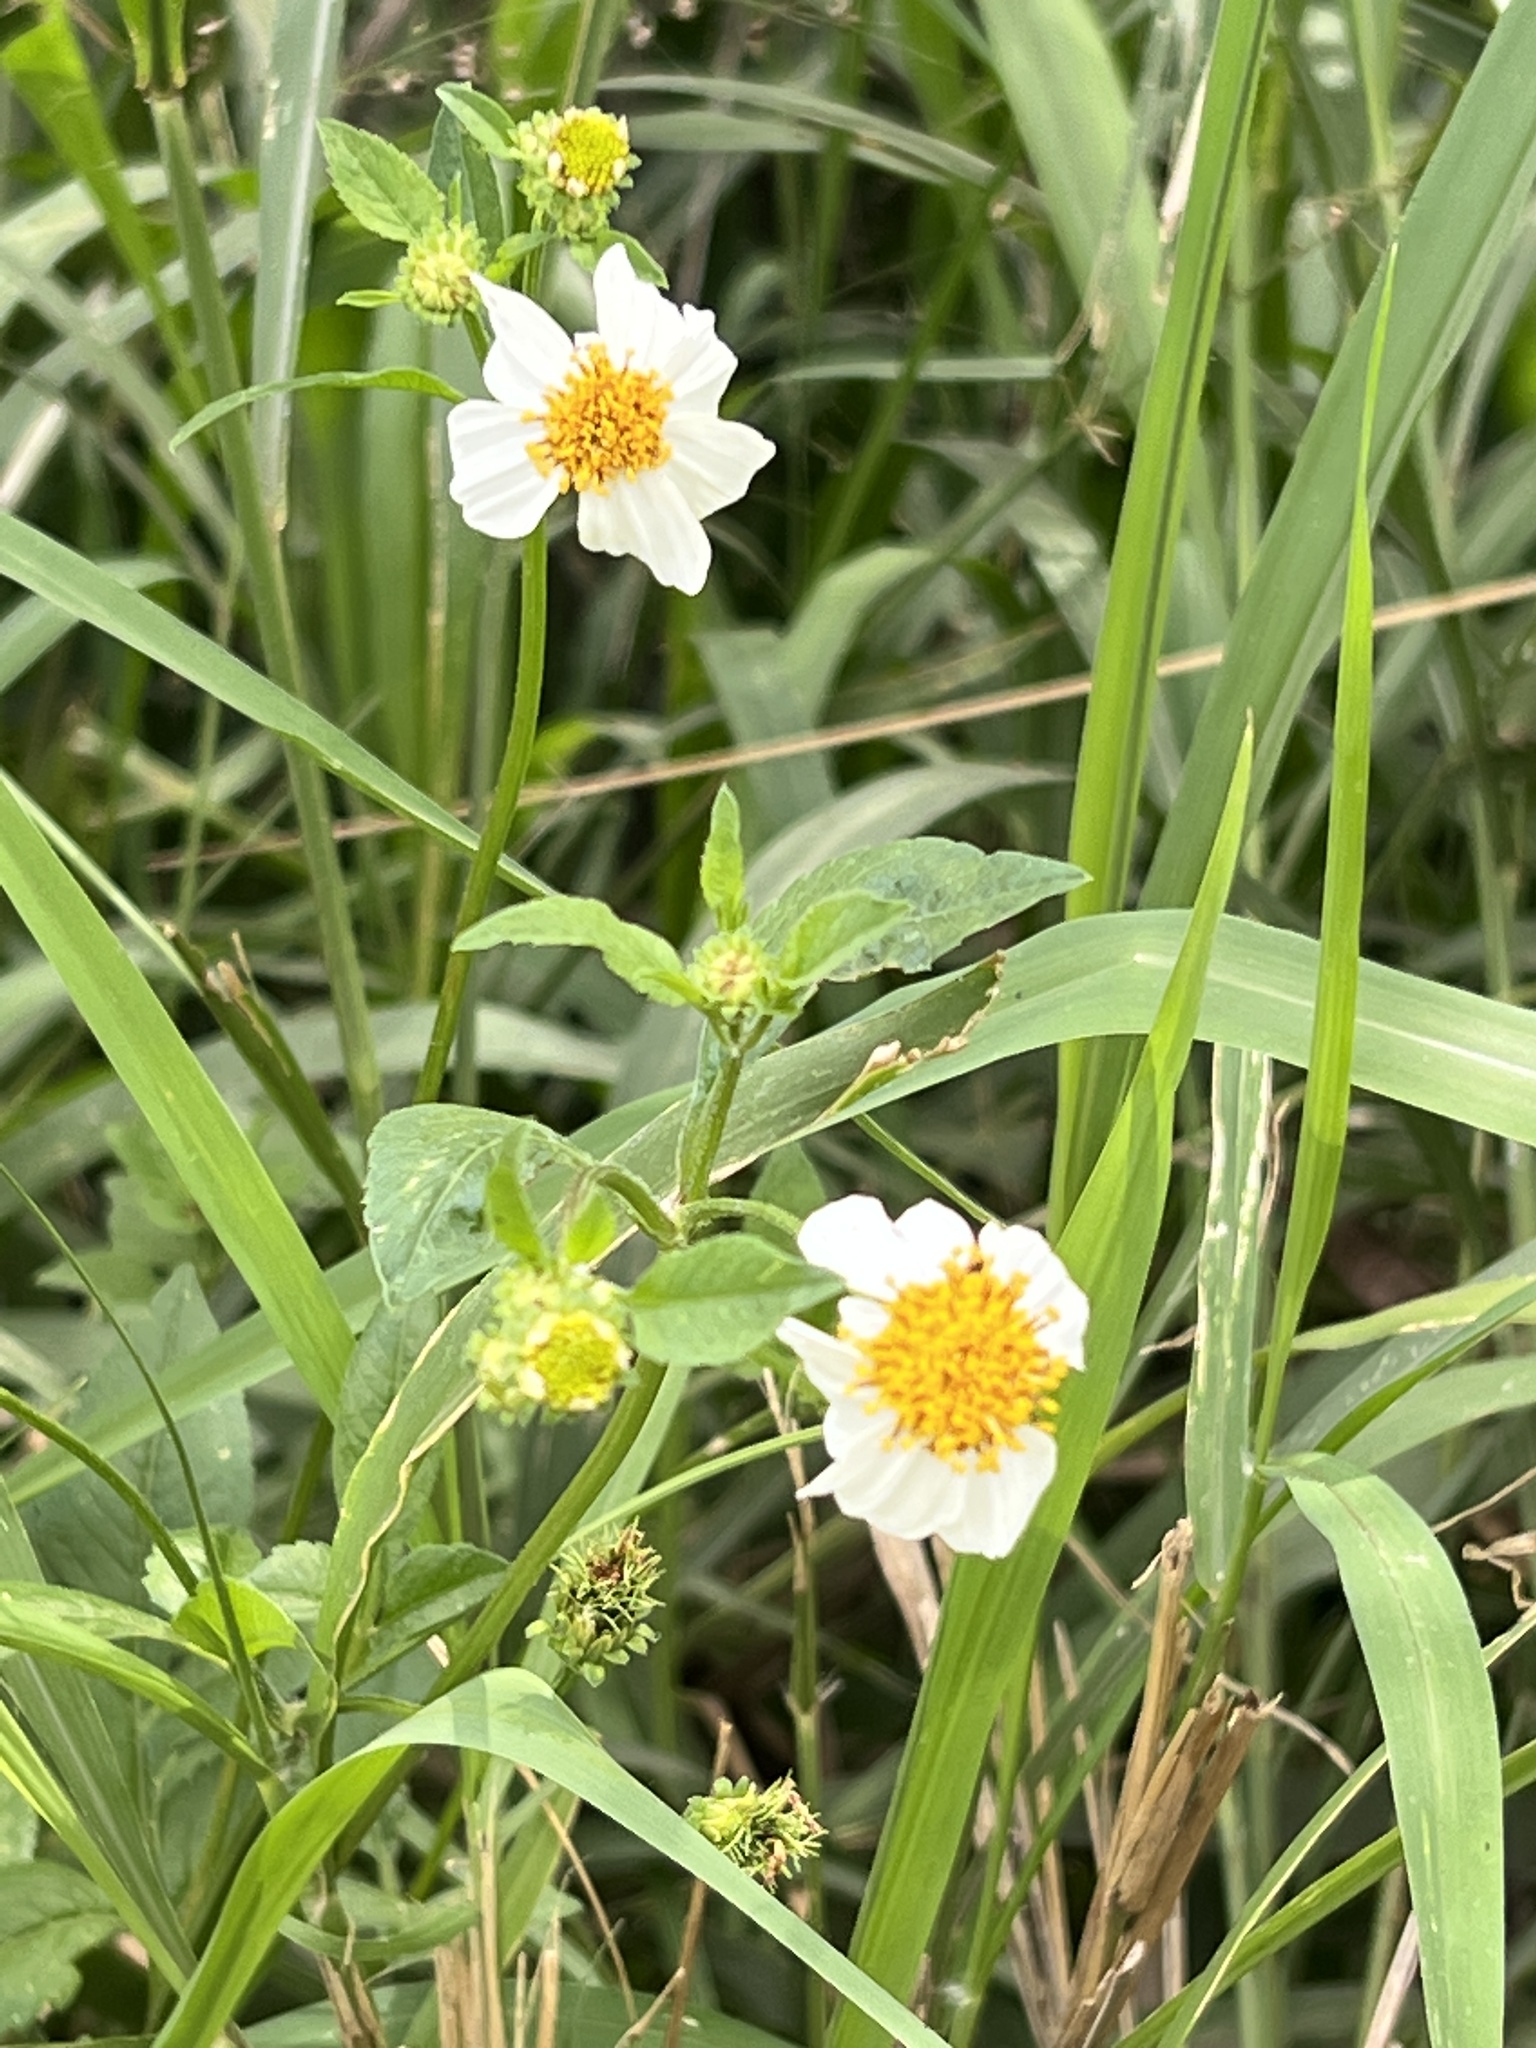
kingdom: Plantae
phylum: Tracheophyta
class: Magnoliopsida
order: Asterales
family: Asteraceae
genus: Bidens
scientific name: Bidens alba
